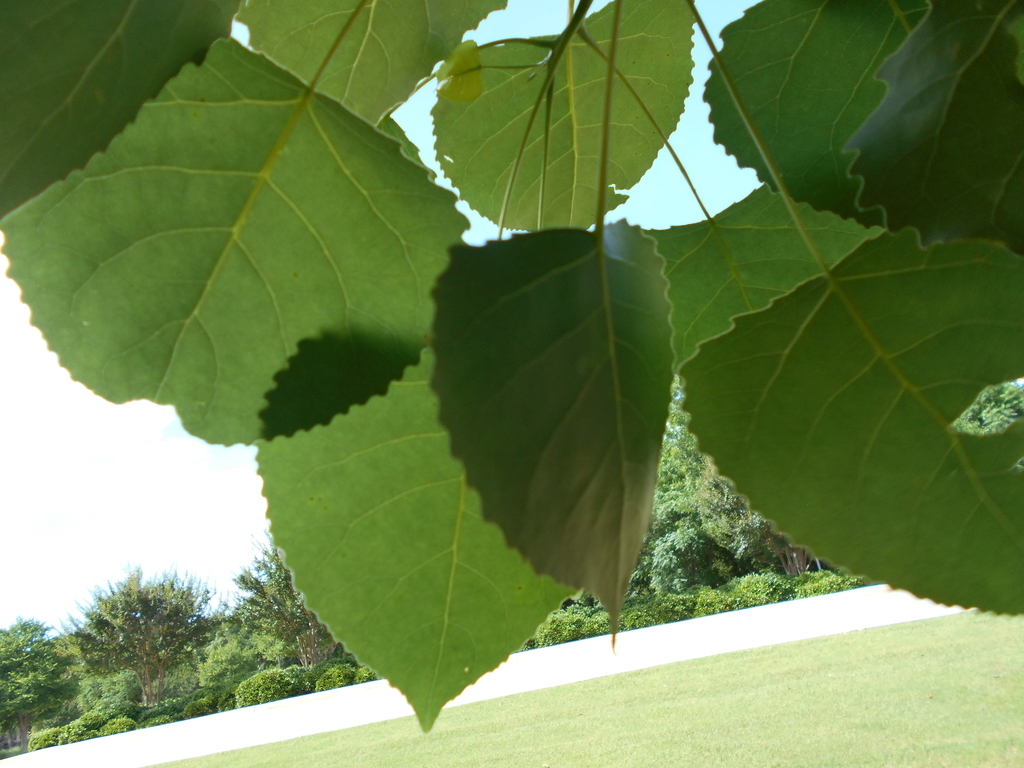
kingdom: Plantae
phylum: Tracheophyta
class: Magnoliopsida
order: Malpighiales
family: Salicaceae
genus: Populus
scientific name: Populus deltoides
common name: Eastern cottonwood
